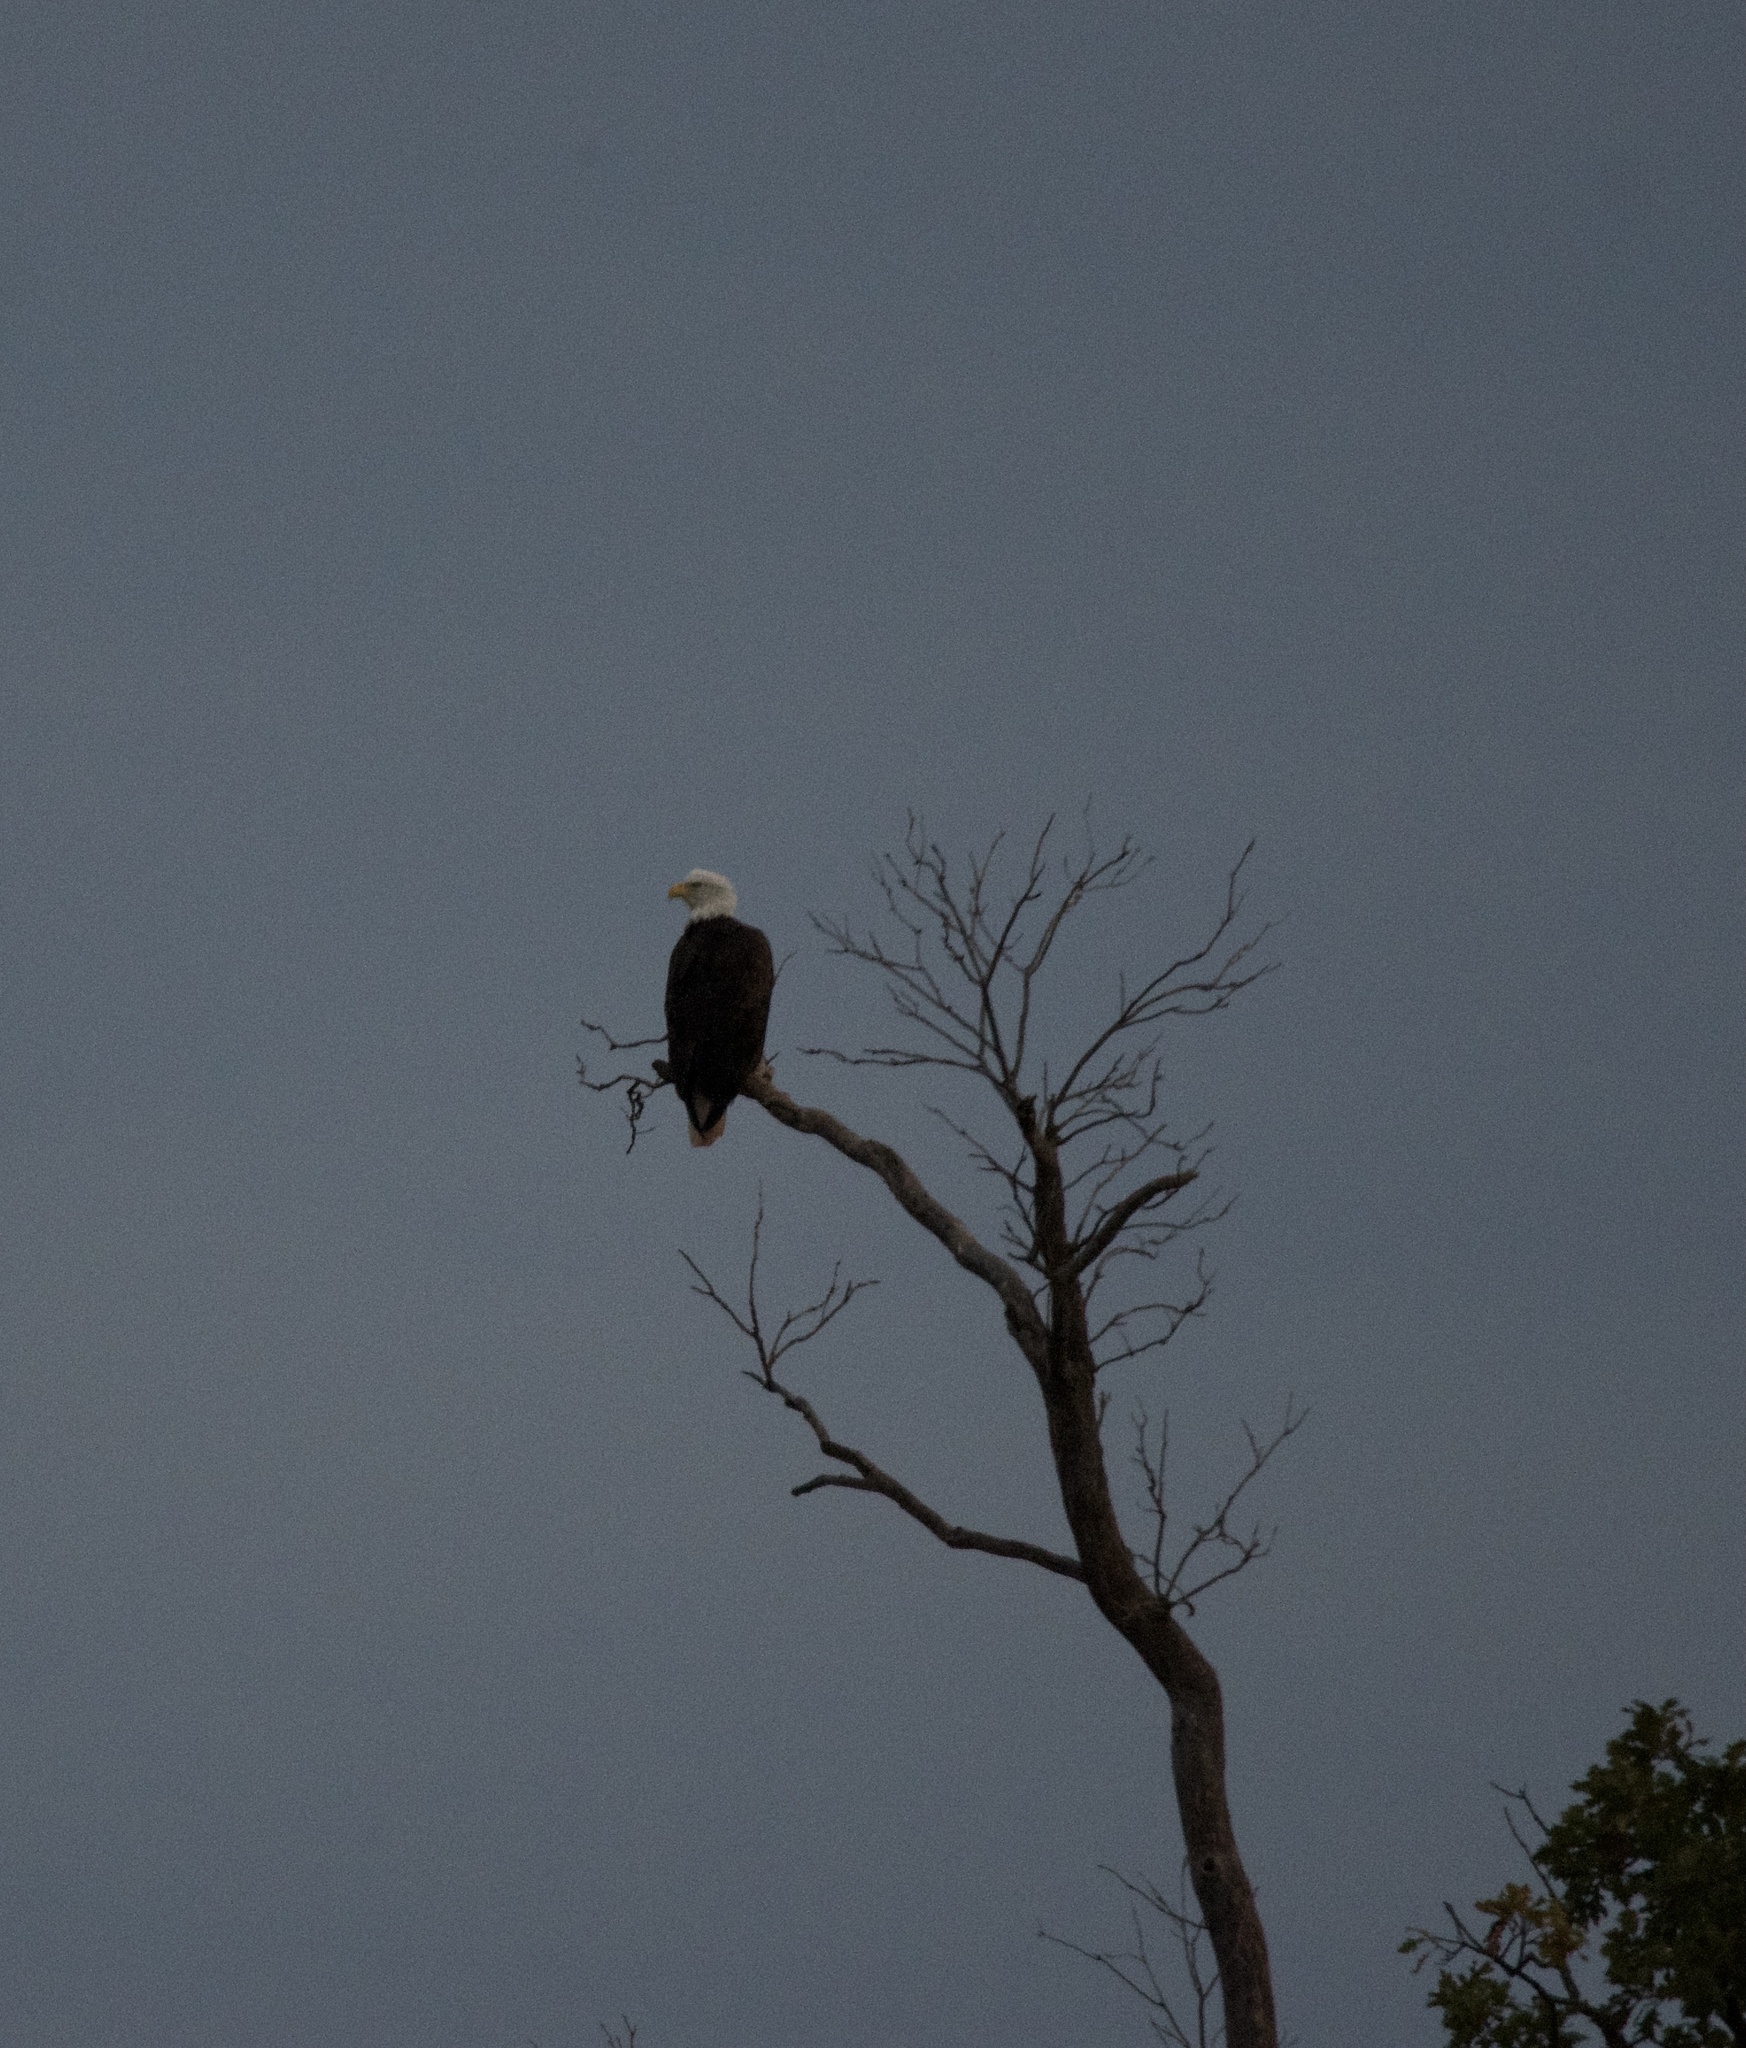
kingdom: Animalia
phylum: Chordata
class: Aves
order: Accipitriformes
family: Accipitridae
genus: Haliaeetus
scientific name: Haliaeetus leucocephalus
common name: Bald eagle
